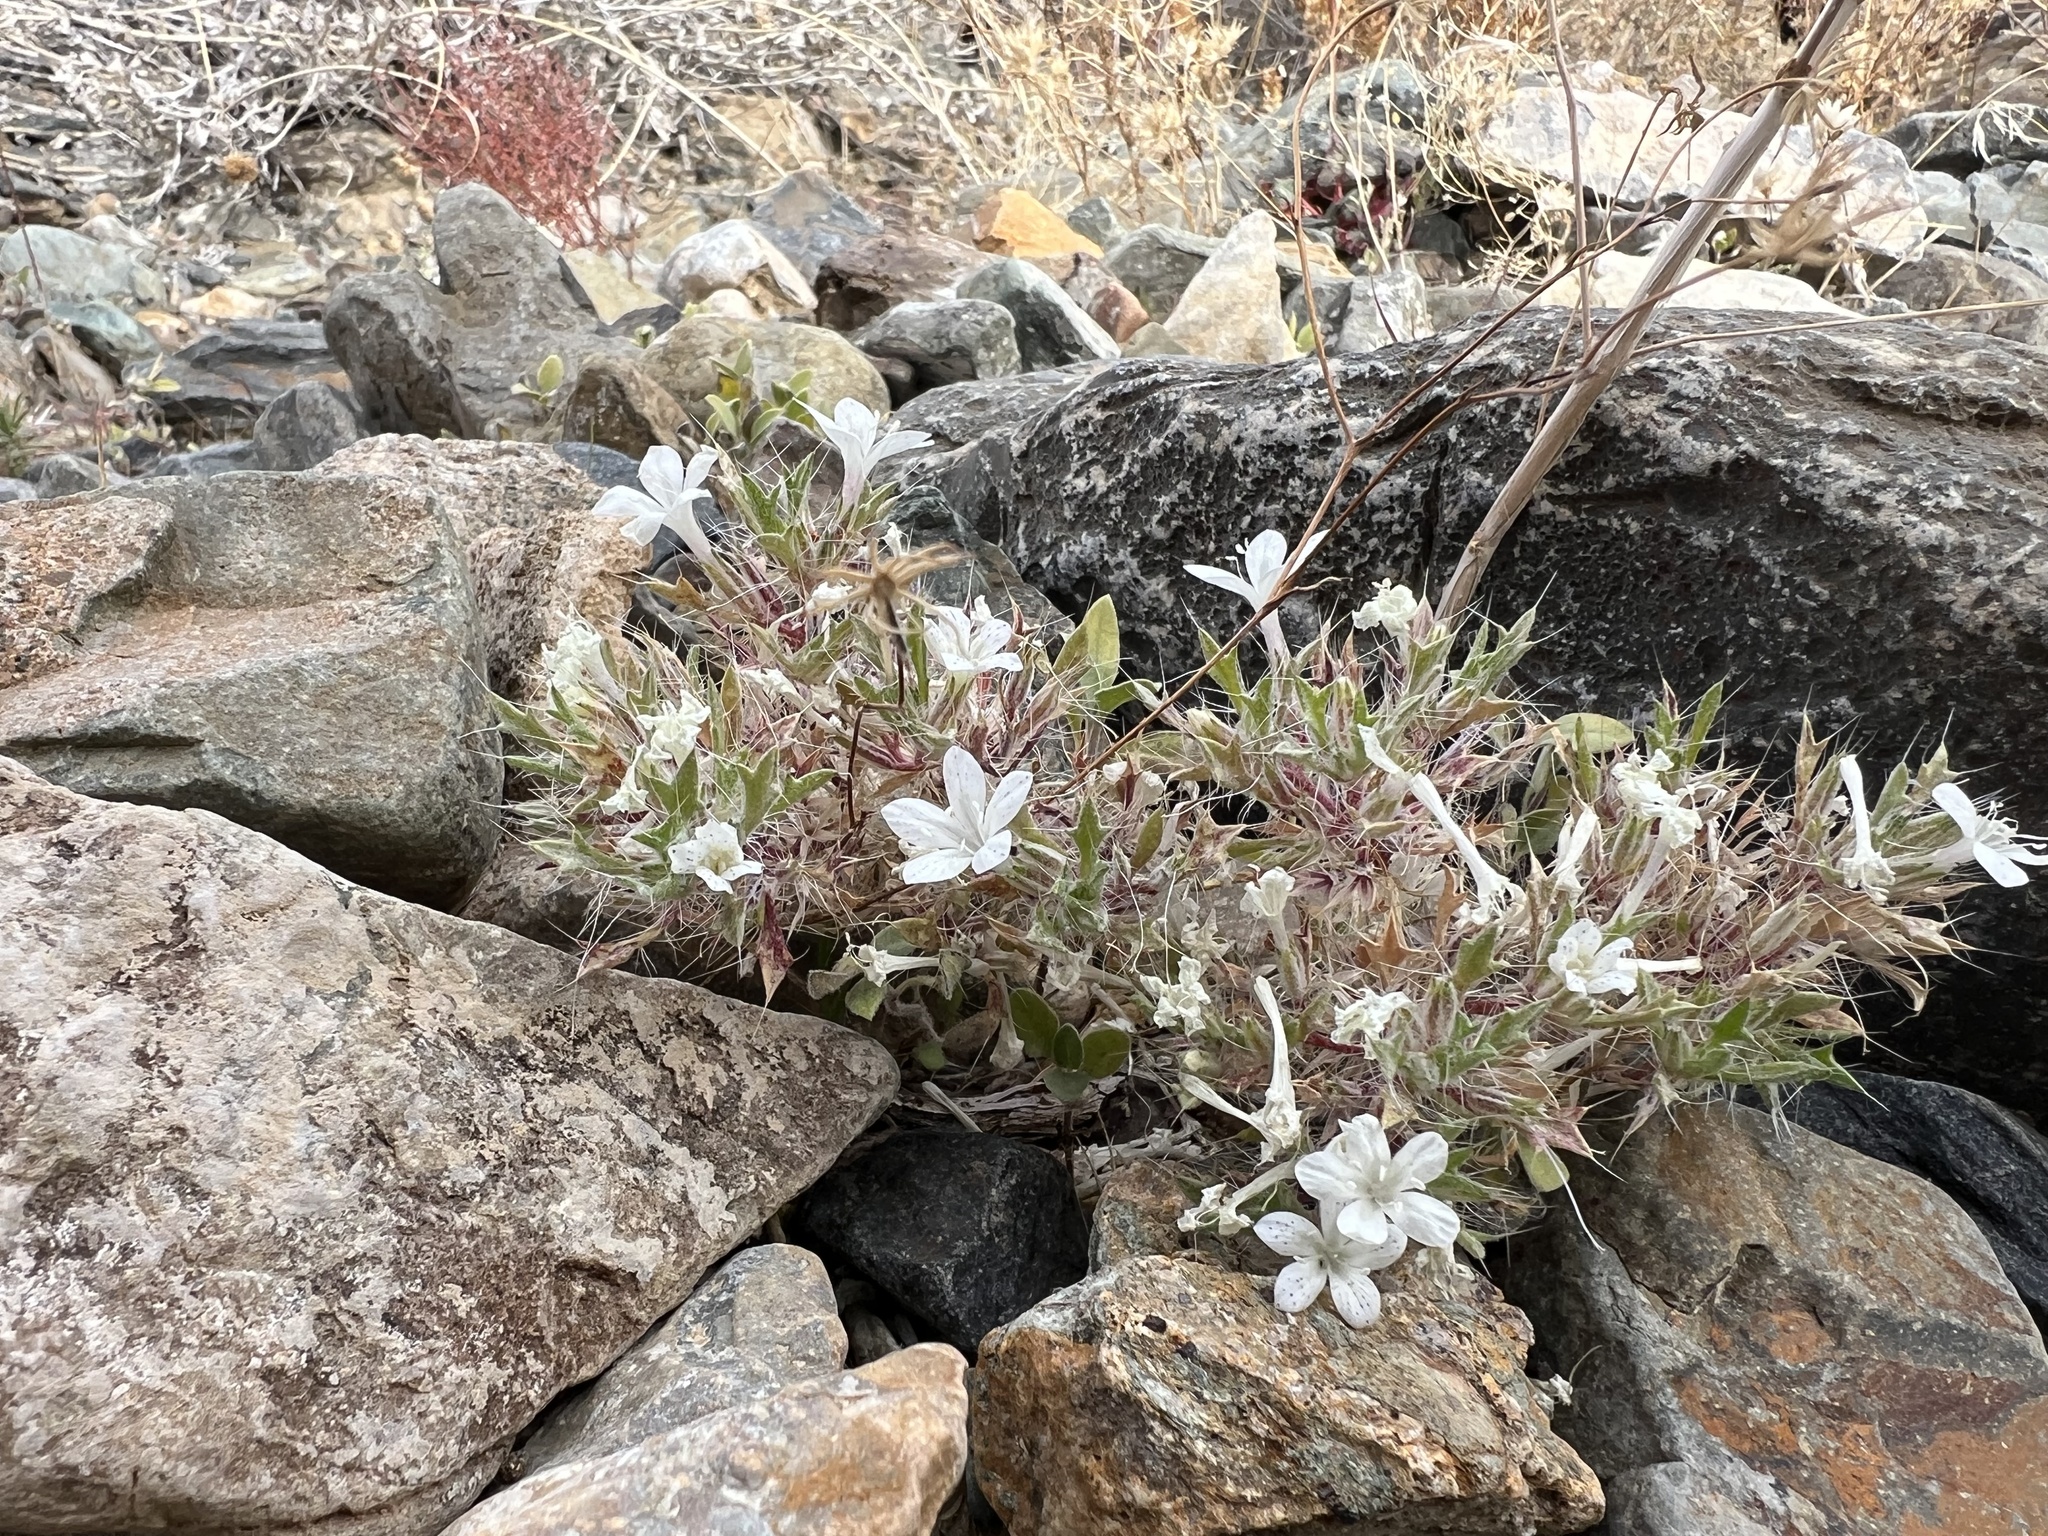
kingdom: Plantae
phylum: Tracheophyta
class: Magnoliopsida
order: Ericales
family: Polemoniaceae
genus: Langloisia
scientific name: Langloisia setosissima
